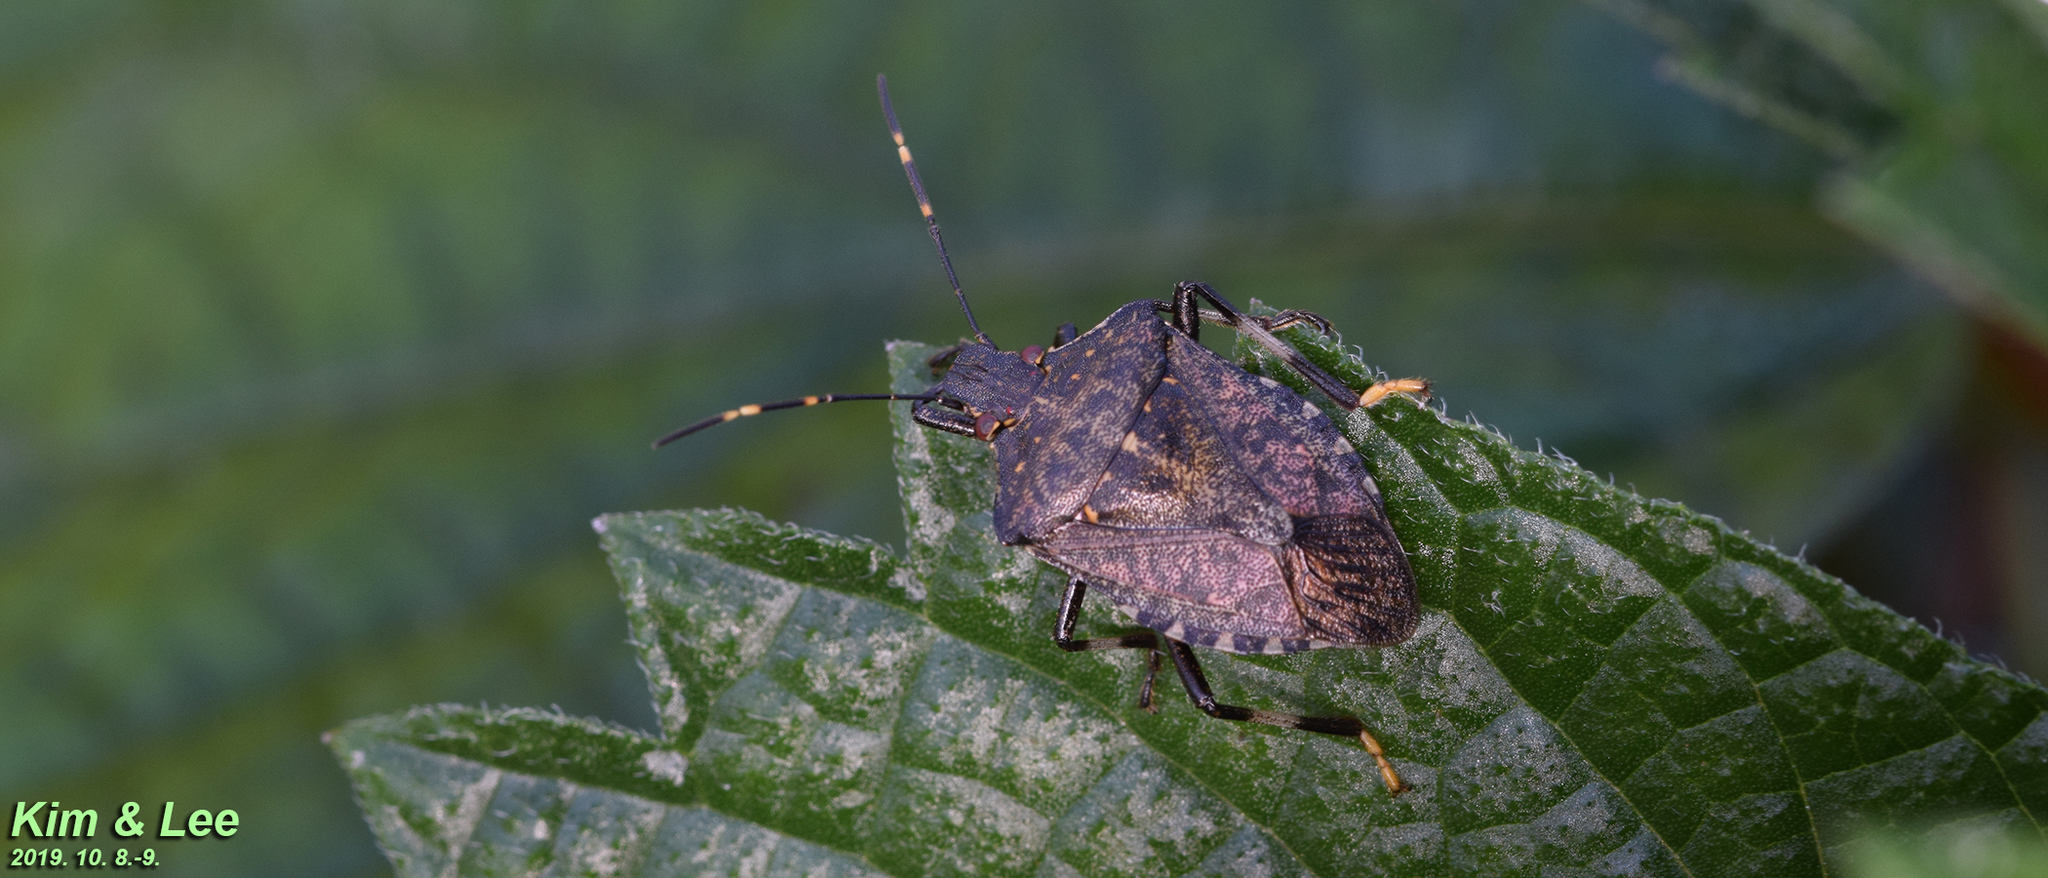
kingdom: Animalia
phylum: Arthropoda
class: Insecta
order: Hemiptera
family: Pentatomidae
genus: Halyomorpha
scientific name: Halyomorpha halys
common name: Brown marmorated stink bug
